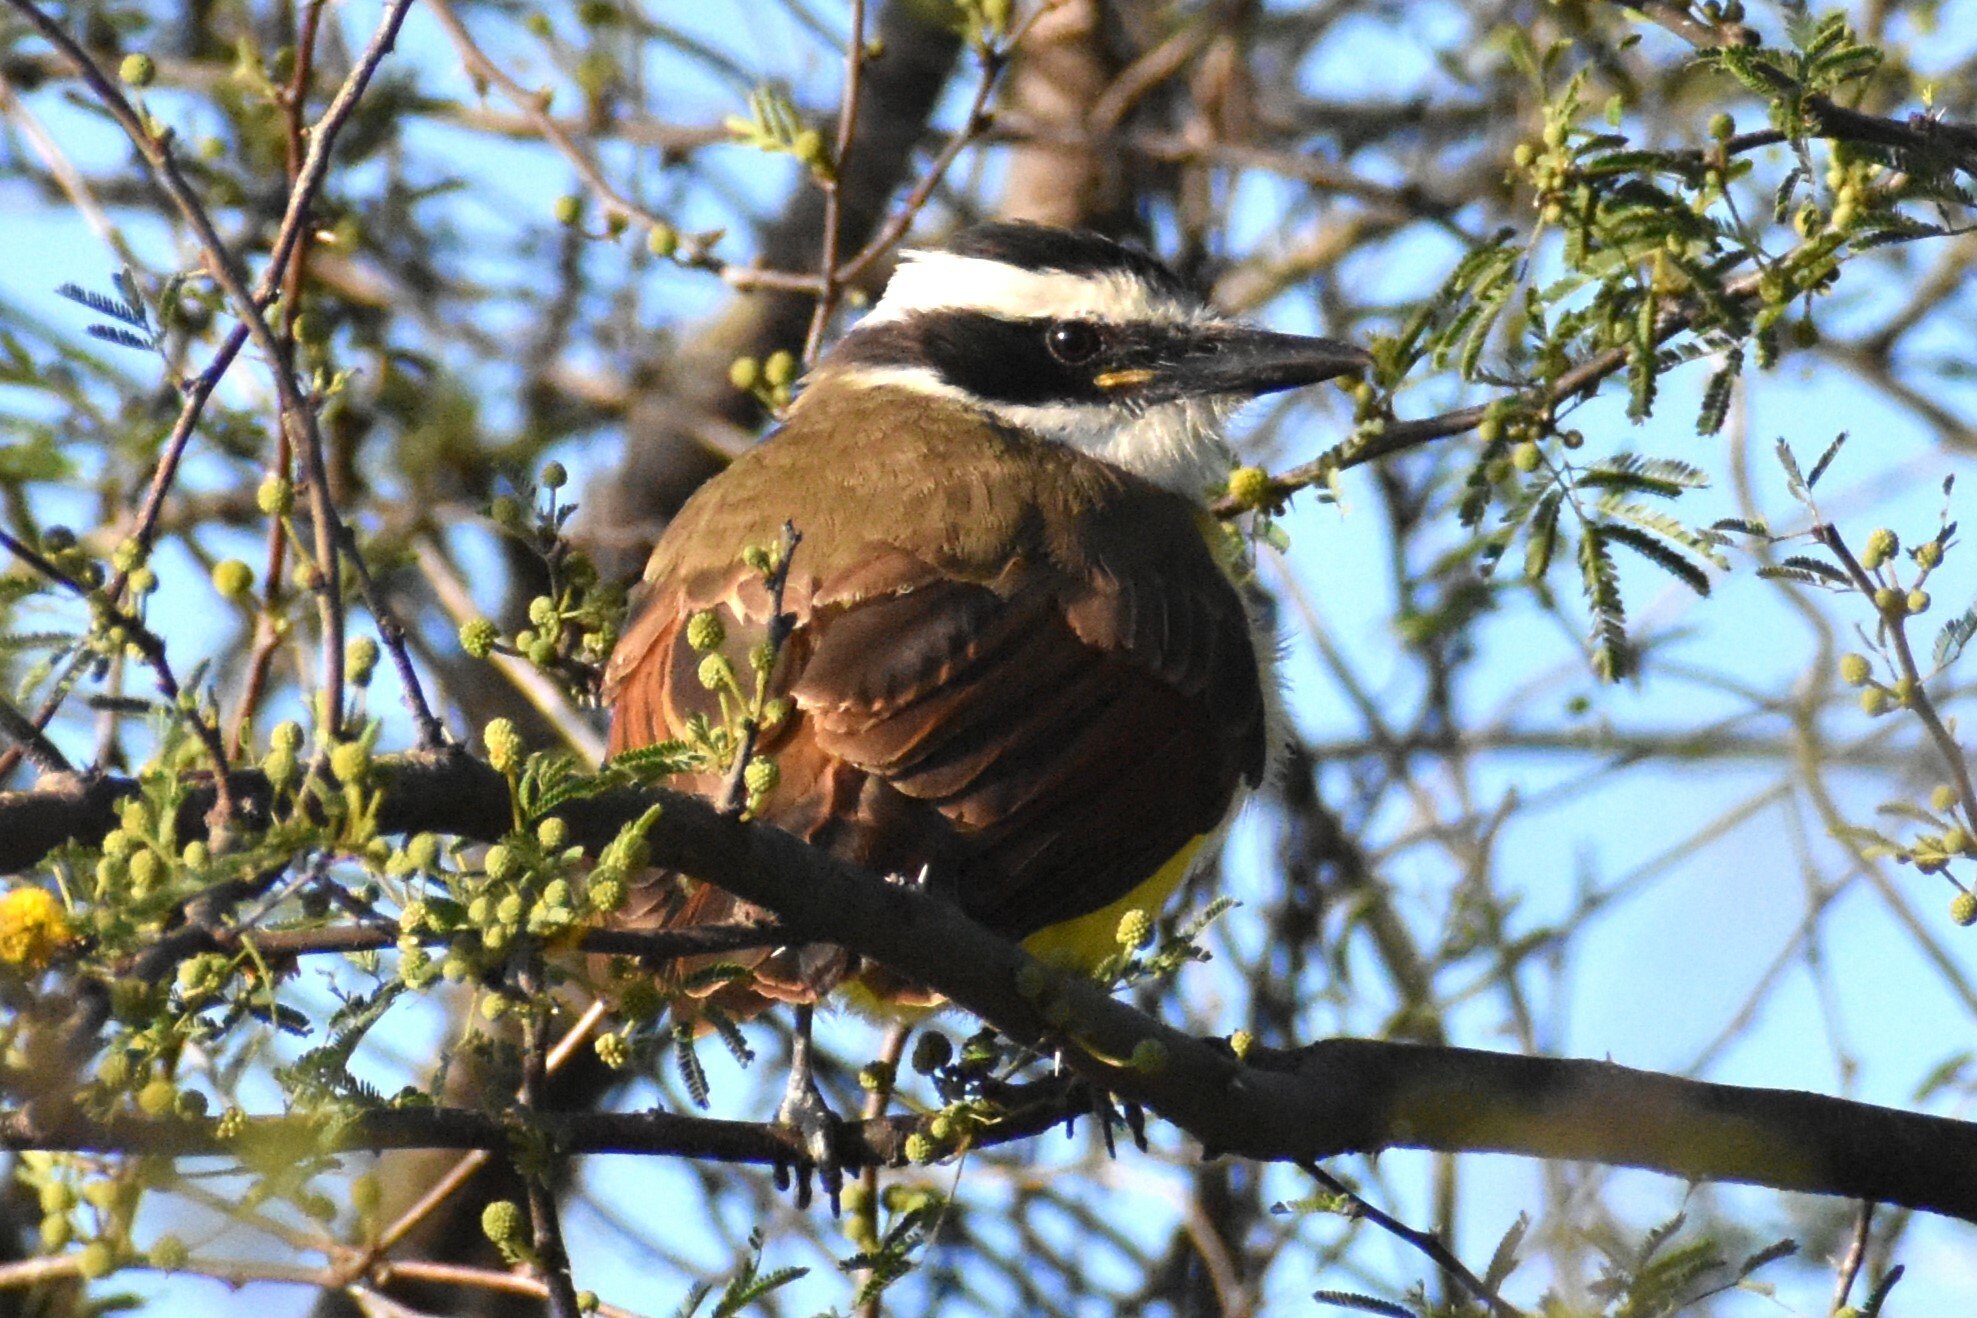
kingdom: Animalia
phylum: Chordata
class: Aves
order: Passeriformes
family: Tyrannidae
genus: Pitangus
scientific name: Pitangus sulphuratus
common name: Great kiskadee
